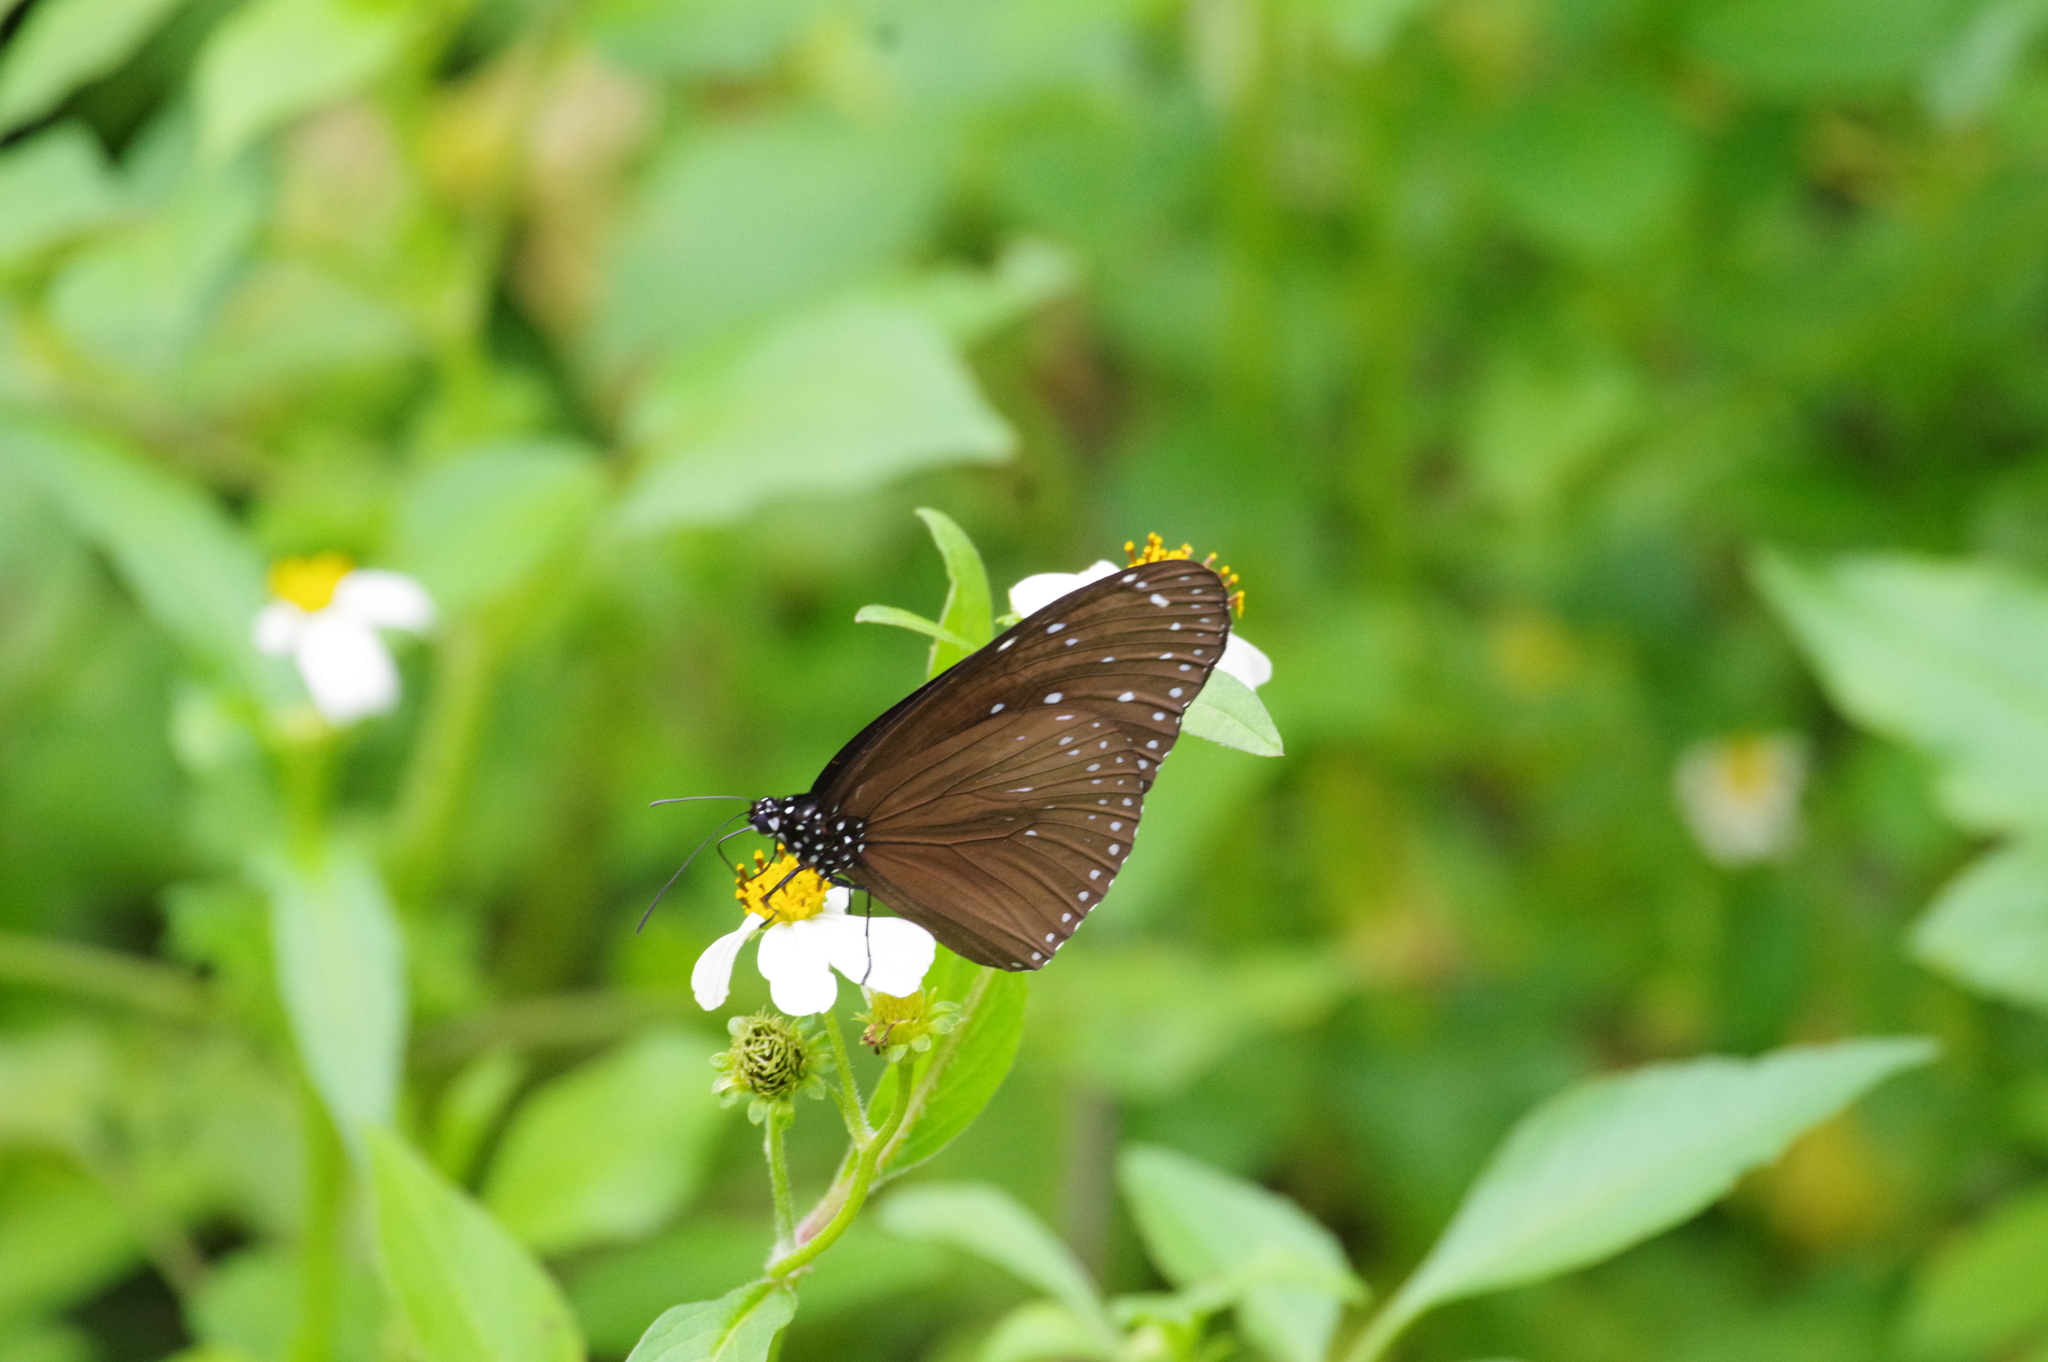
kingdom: Animalia
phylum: Arthropoda
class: Insecta
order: Lepidoptera
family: Nymphalidae
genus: Euploea
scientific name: Euploea mulciber
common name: Striped blue crow butterfly
